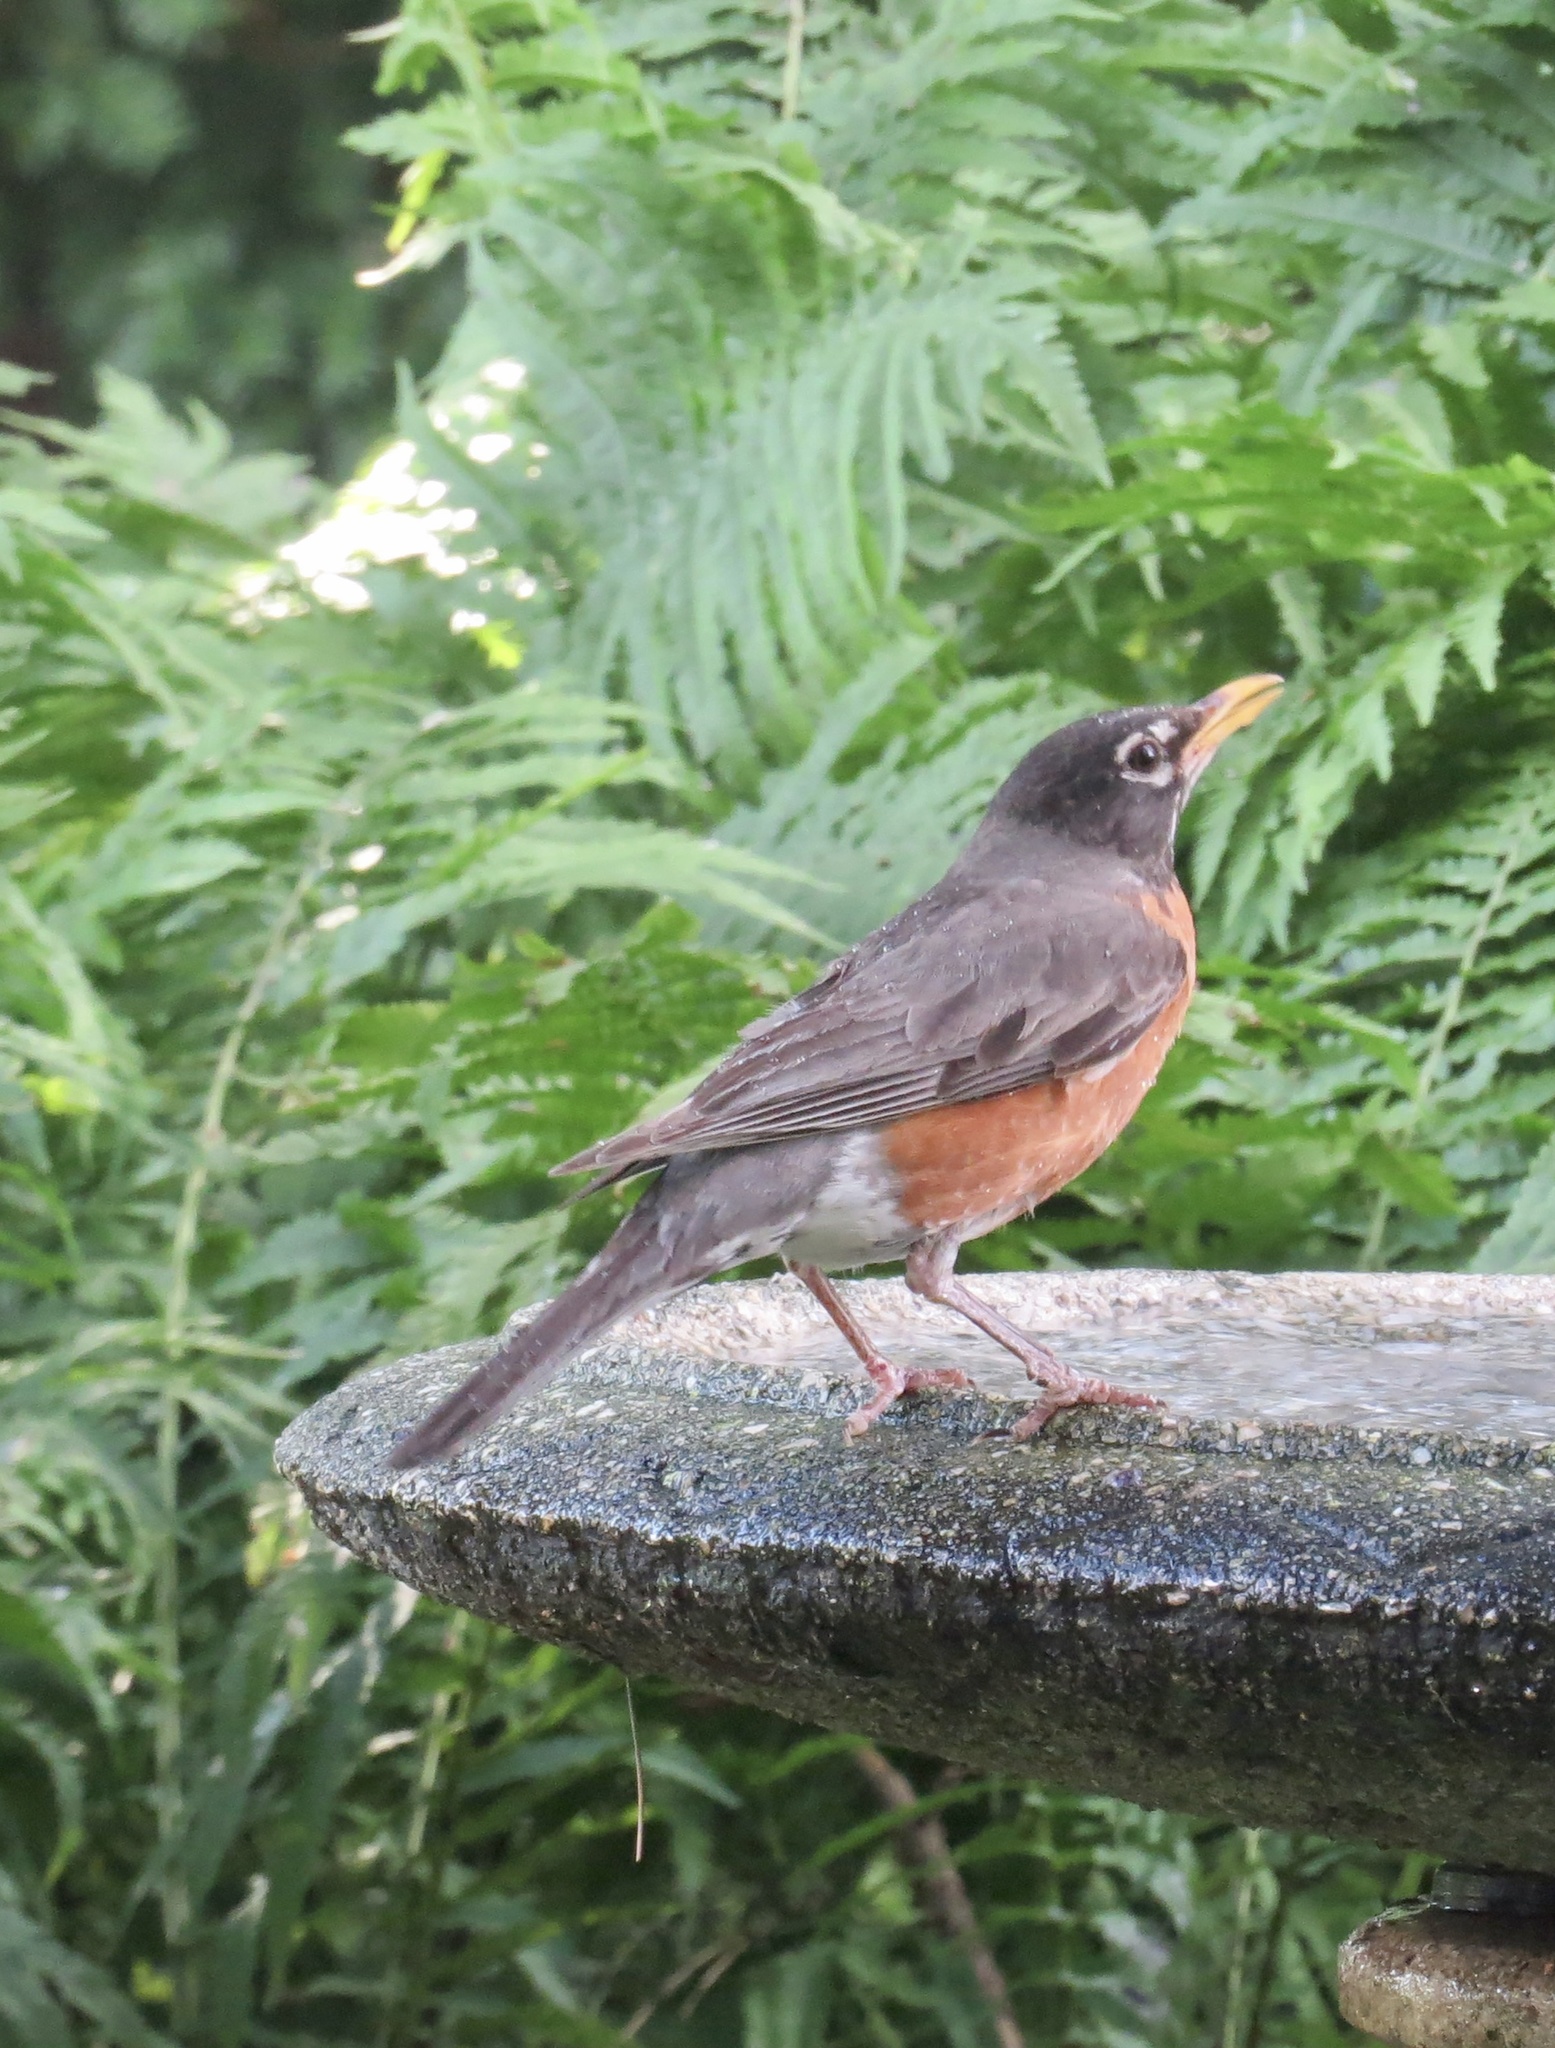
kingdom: Animalia
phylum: Chordata
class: Aves
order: Passeriformes
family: Turdidae
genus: Turdus
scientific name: Turdus migratorius
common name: American robin
